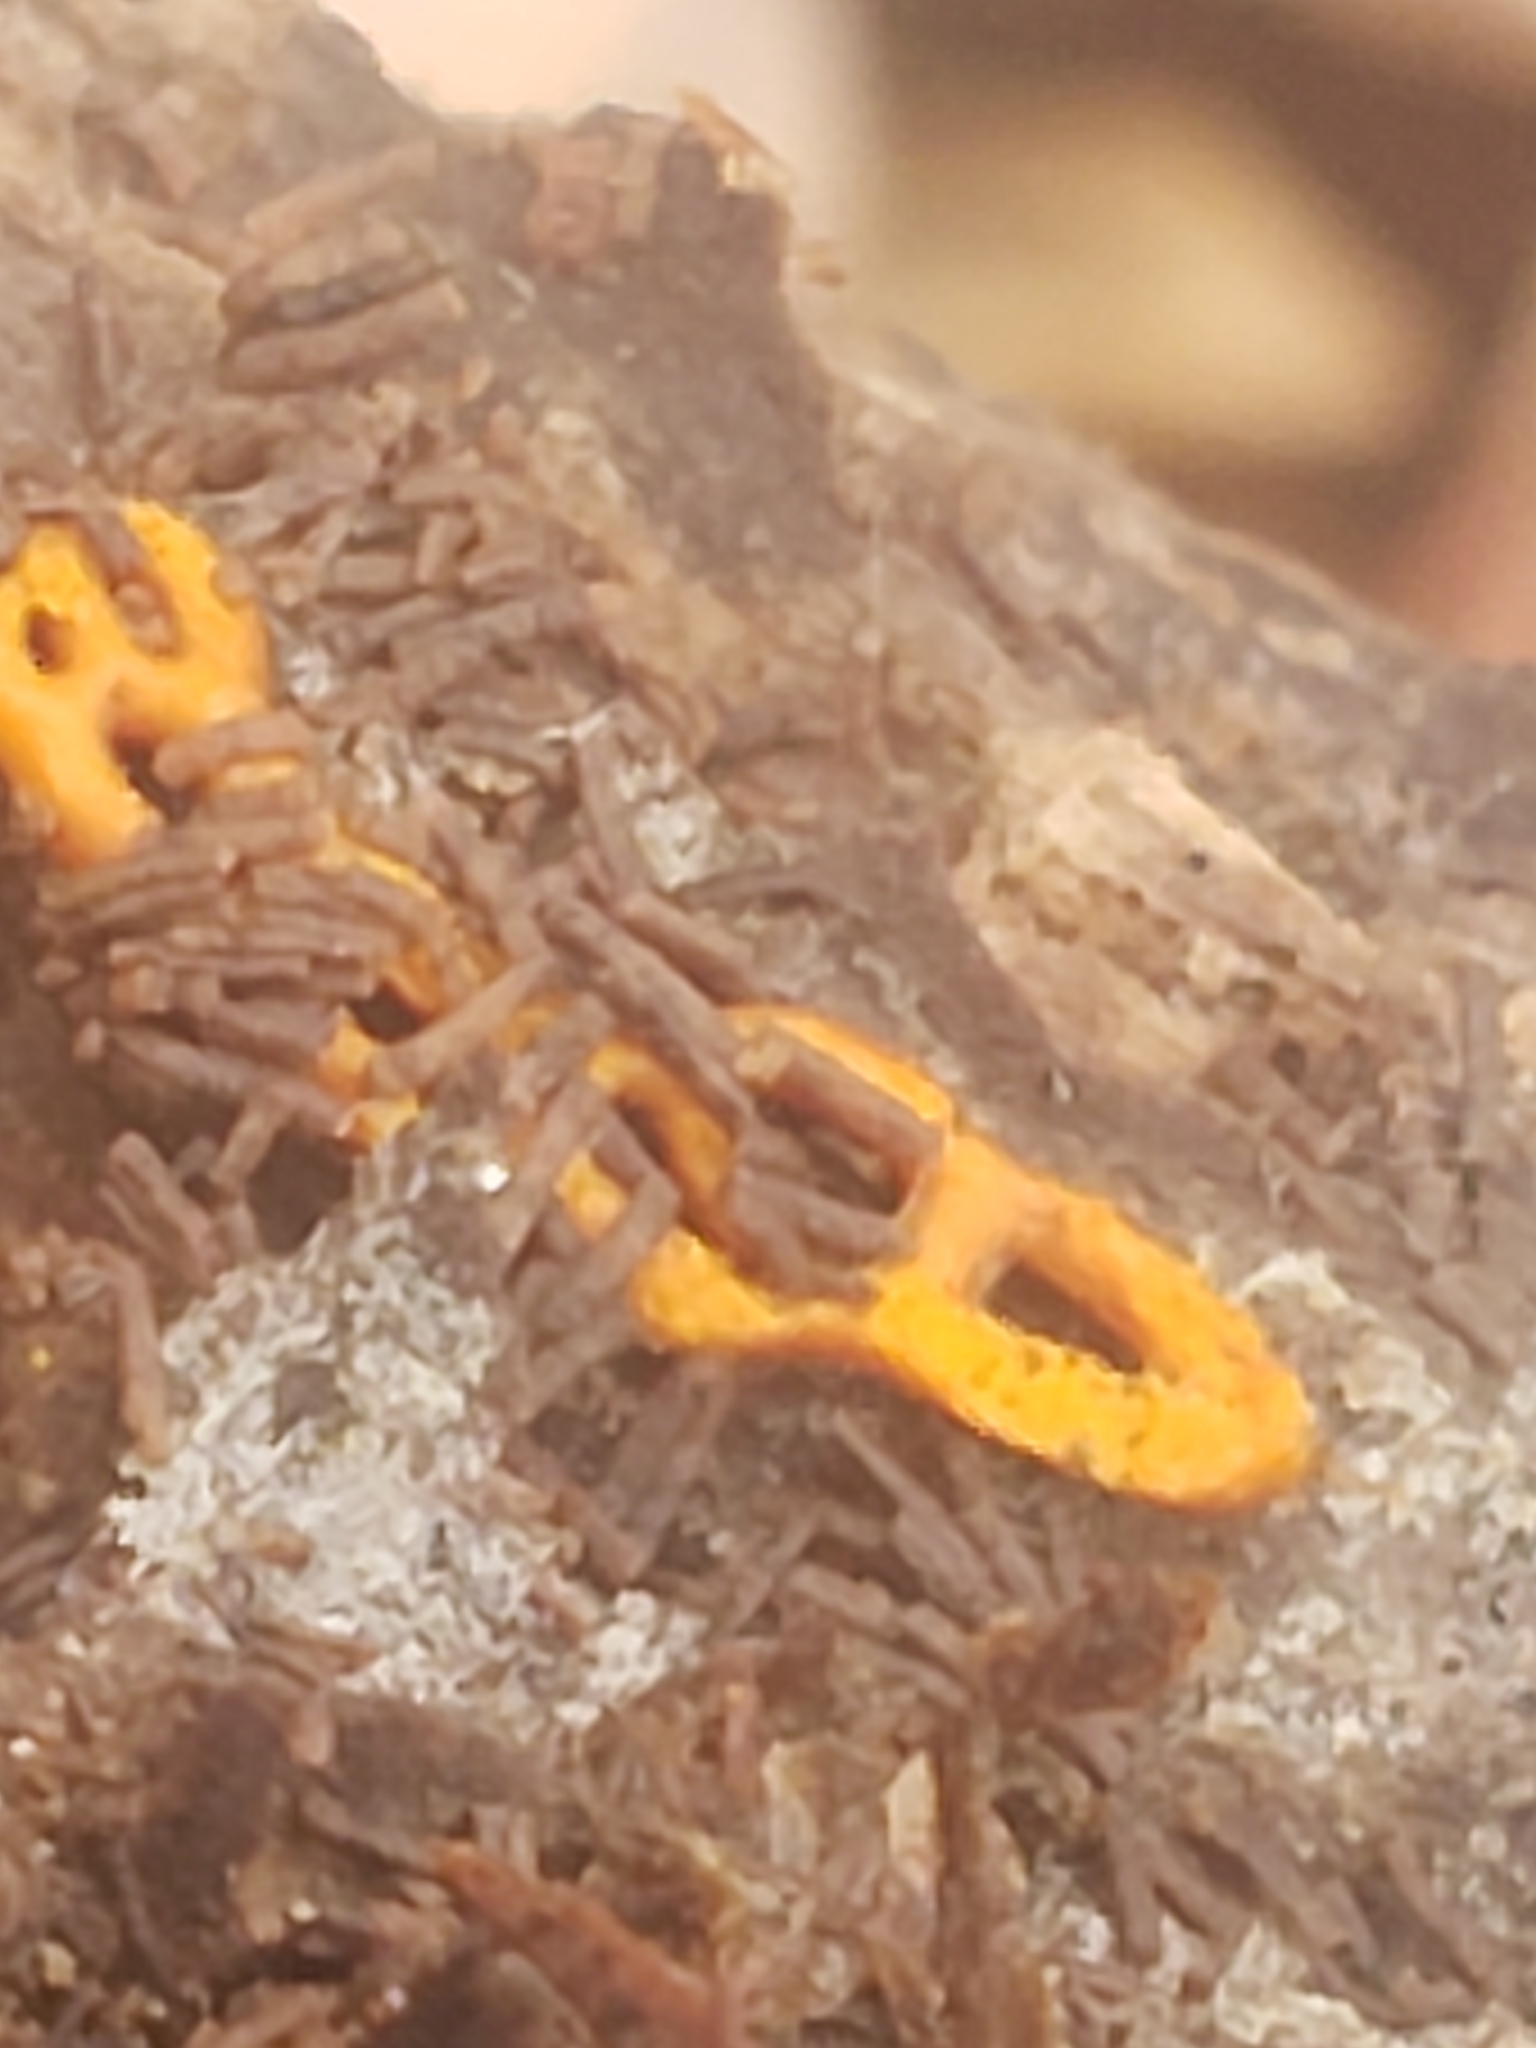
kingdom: Protozoa
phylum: Mycetozoa
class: Myxomycetes
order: Trichiales
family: Arcyriaceae
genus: Hemitrichia
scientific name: Hemitrichia serpula
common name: Pretzel slime mold
